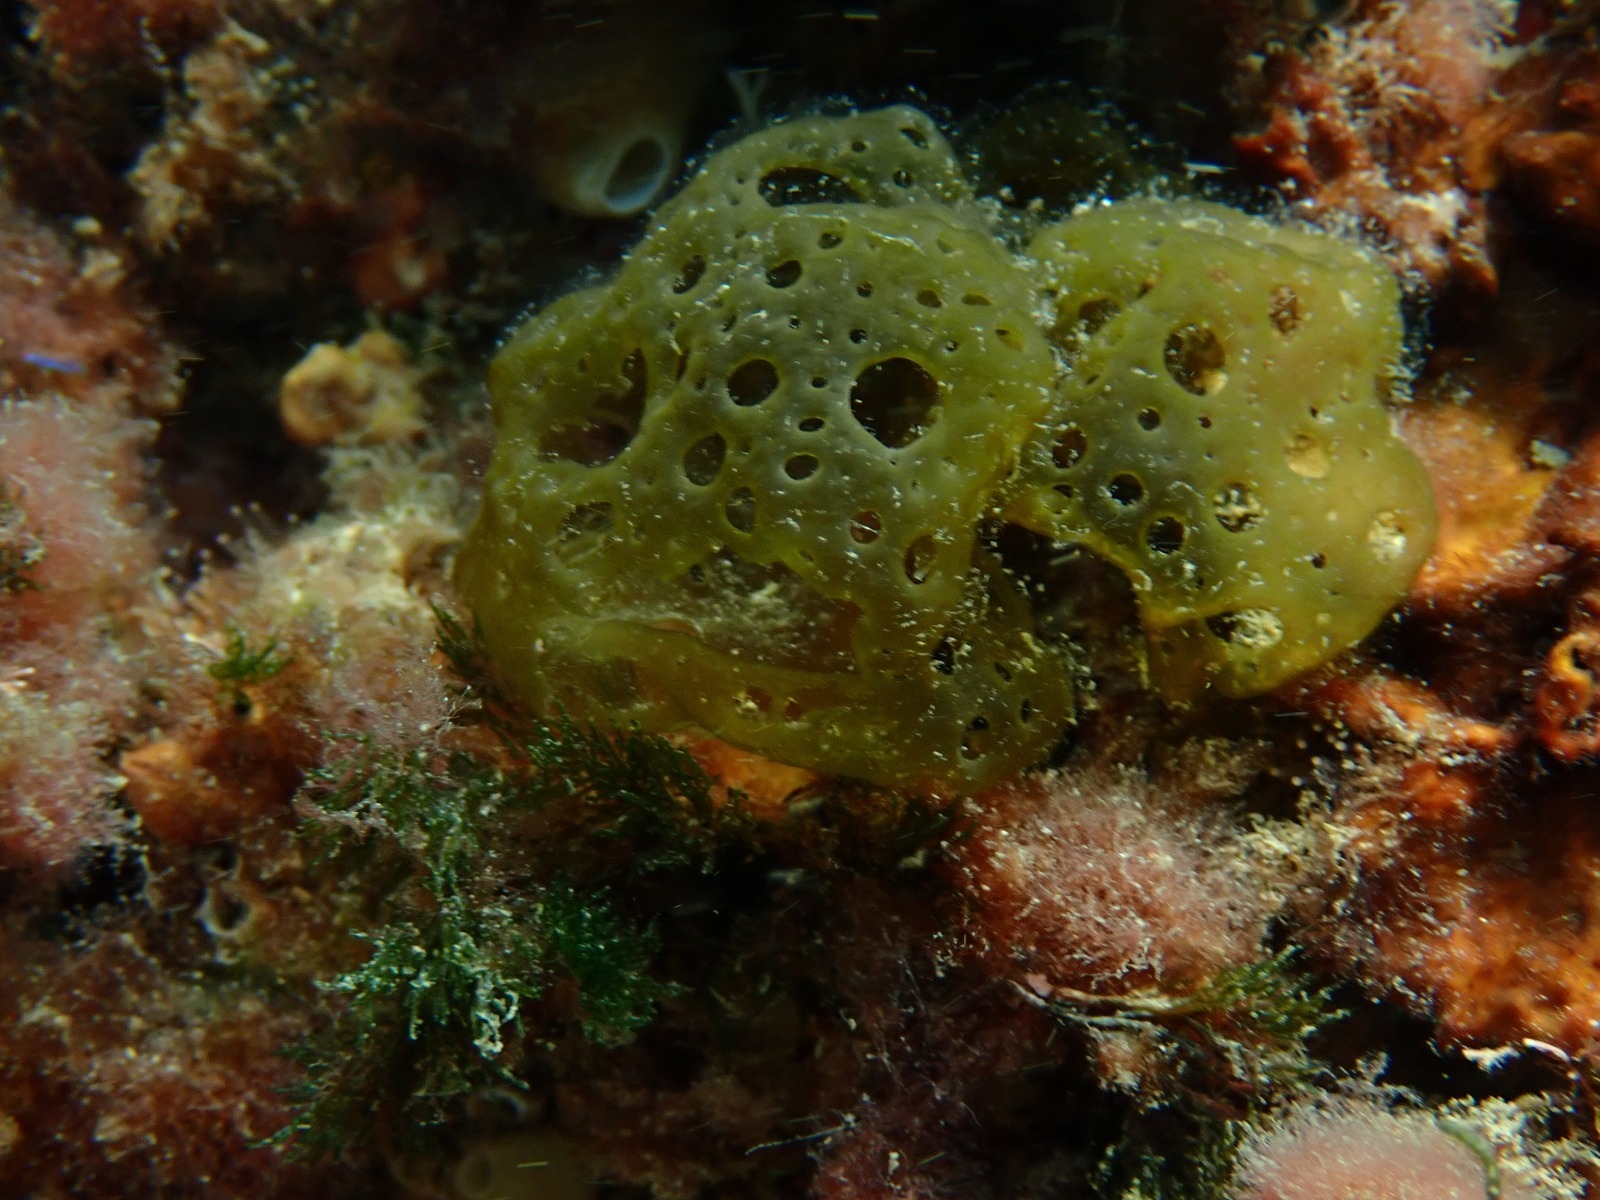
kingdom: Chromista
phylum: Ochrophyta
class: Phaeophyceae
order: Scytosiphonales
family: Scytosiphonaceae
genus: Hydroclathrus
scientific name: Hydroclathrus clathratus
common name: Swiss cheese algae
